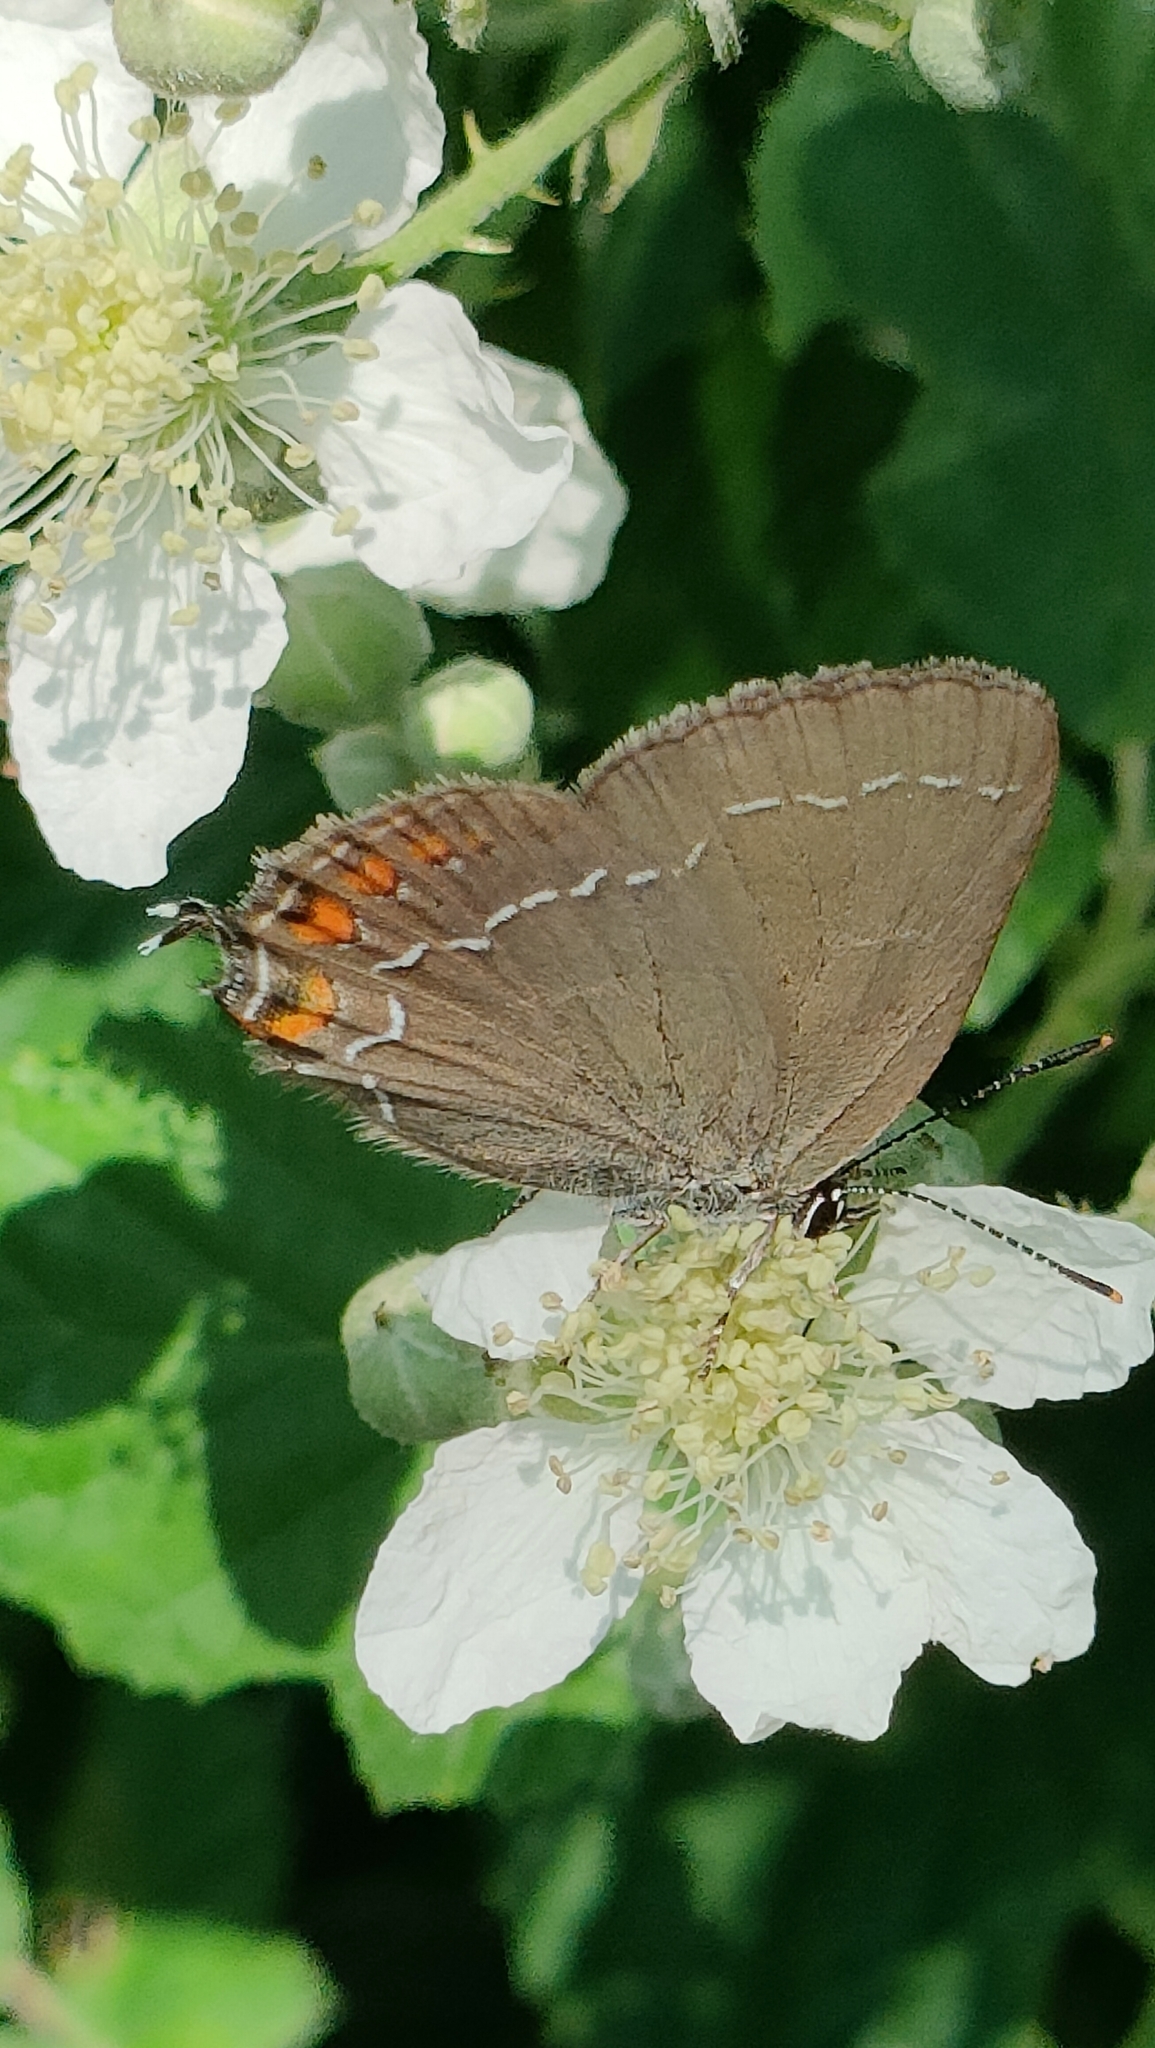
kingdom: Animalia
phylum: Arthropoda
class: Insecta
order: Lepidoptera
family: Lycaenidae
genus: Nordmannia
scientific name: Nordmannia ilicis
